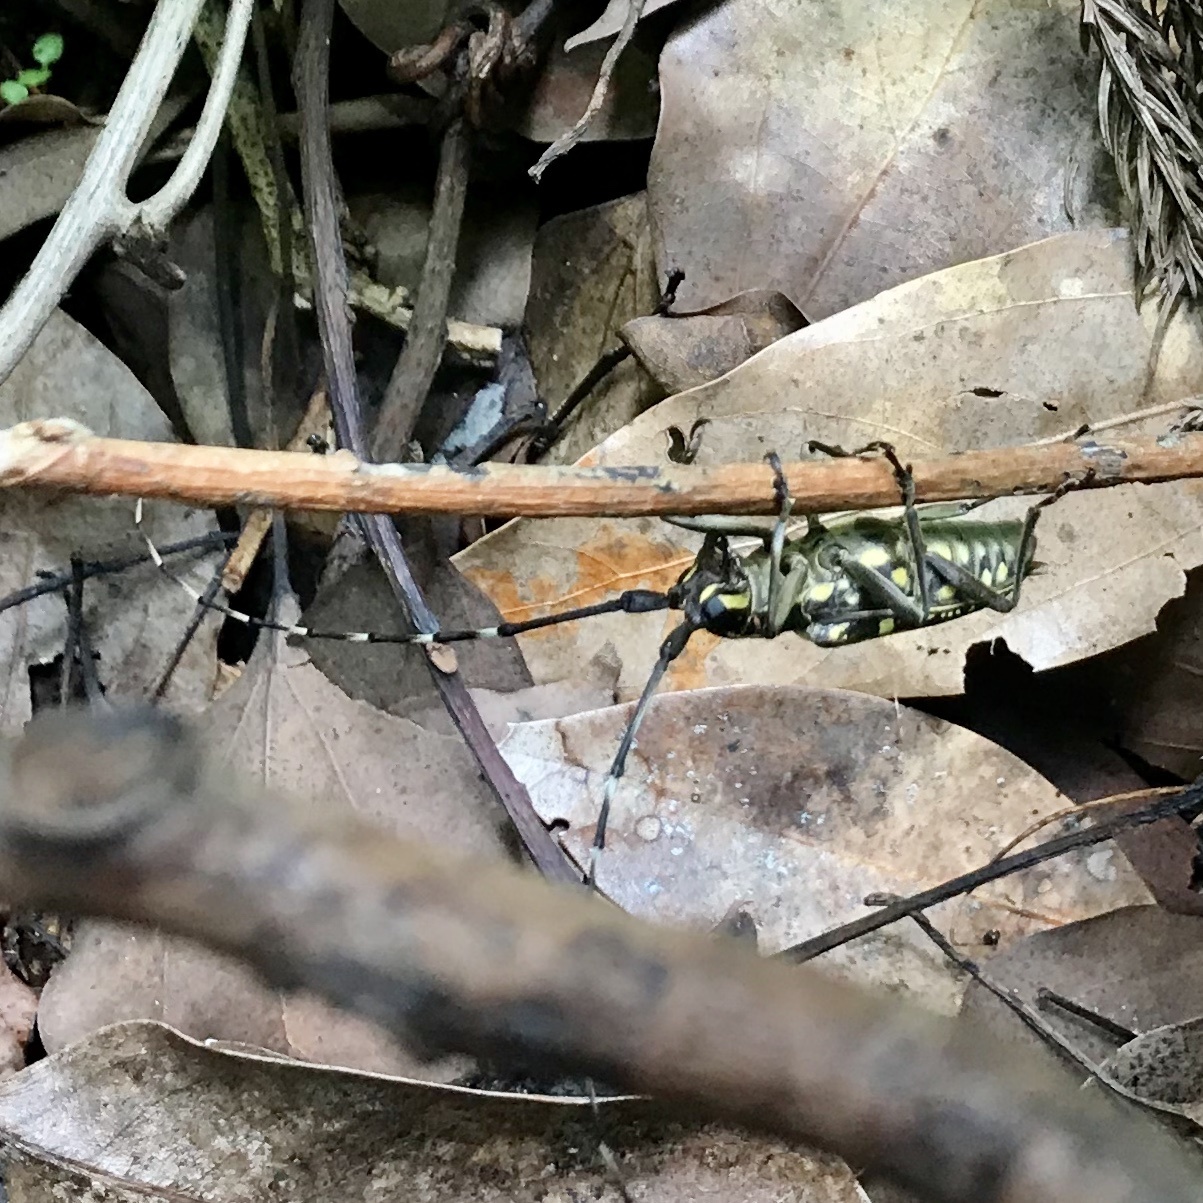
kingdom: Animalia
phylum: Arthropoda
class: Insecta
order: Coleoptera
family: Cerambycidae
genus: Psacothea
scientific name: Psacothea hilaris
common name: Yellow-spotted longicorn beetle
